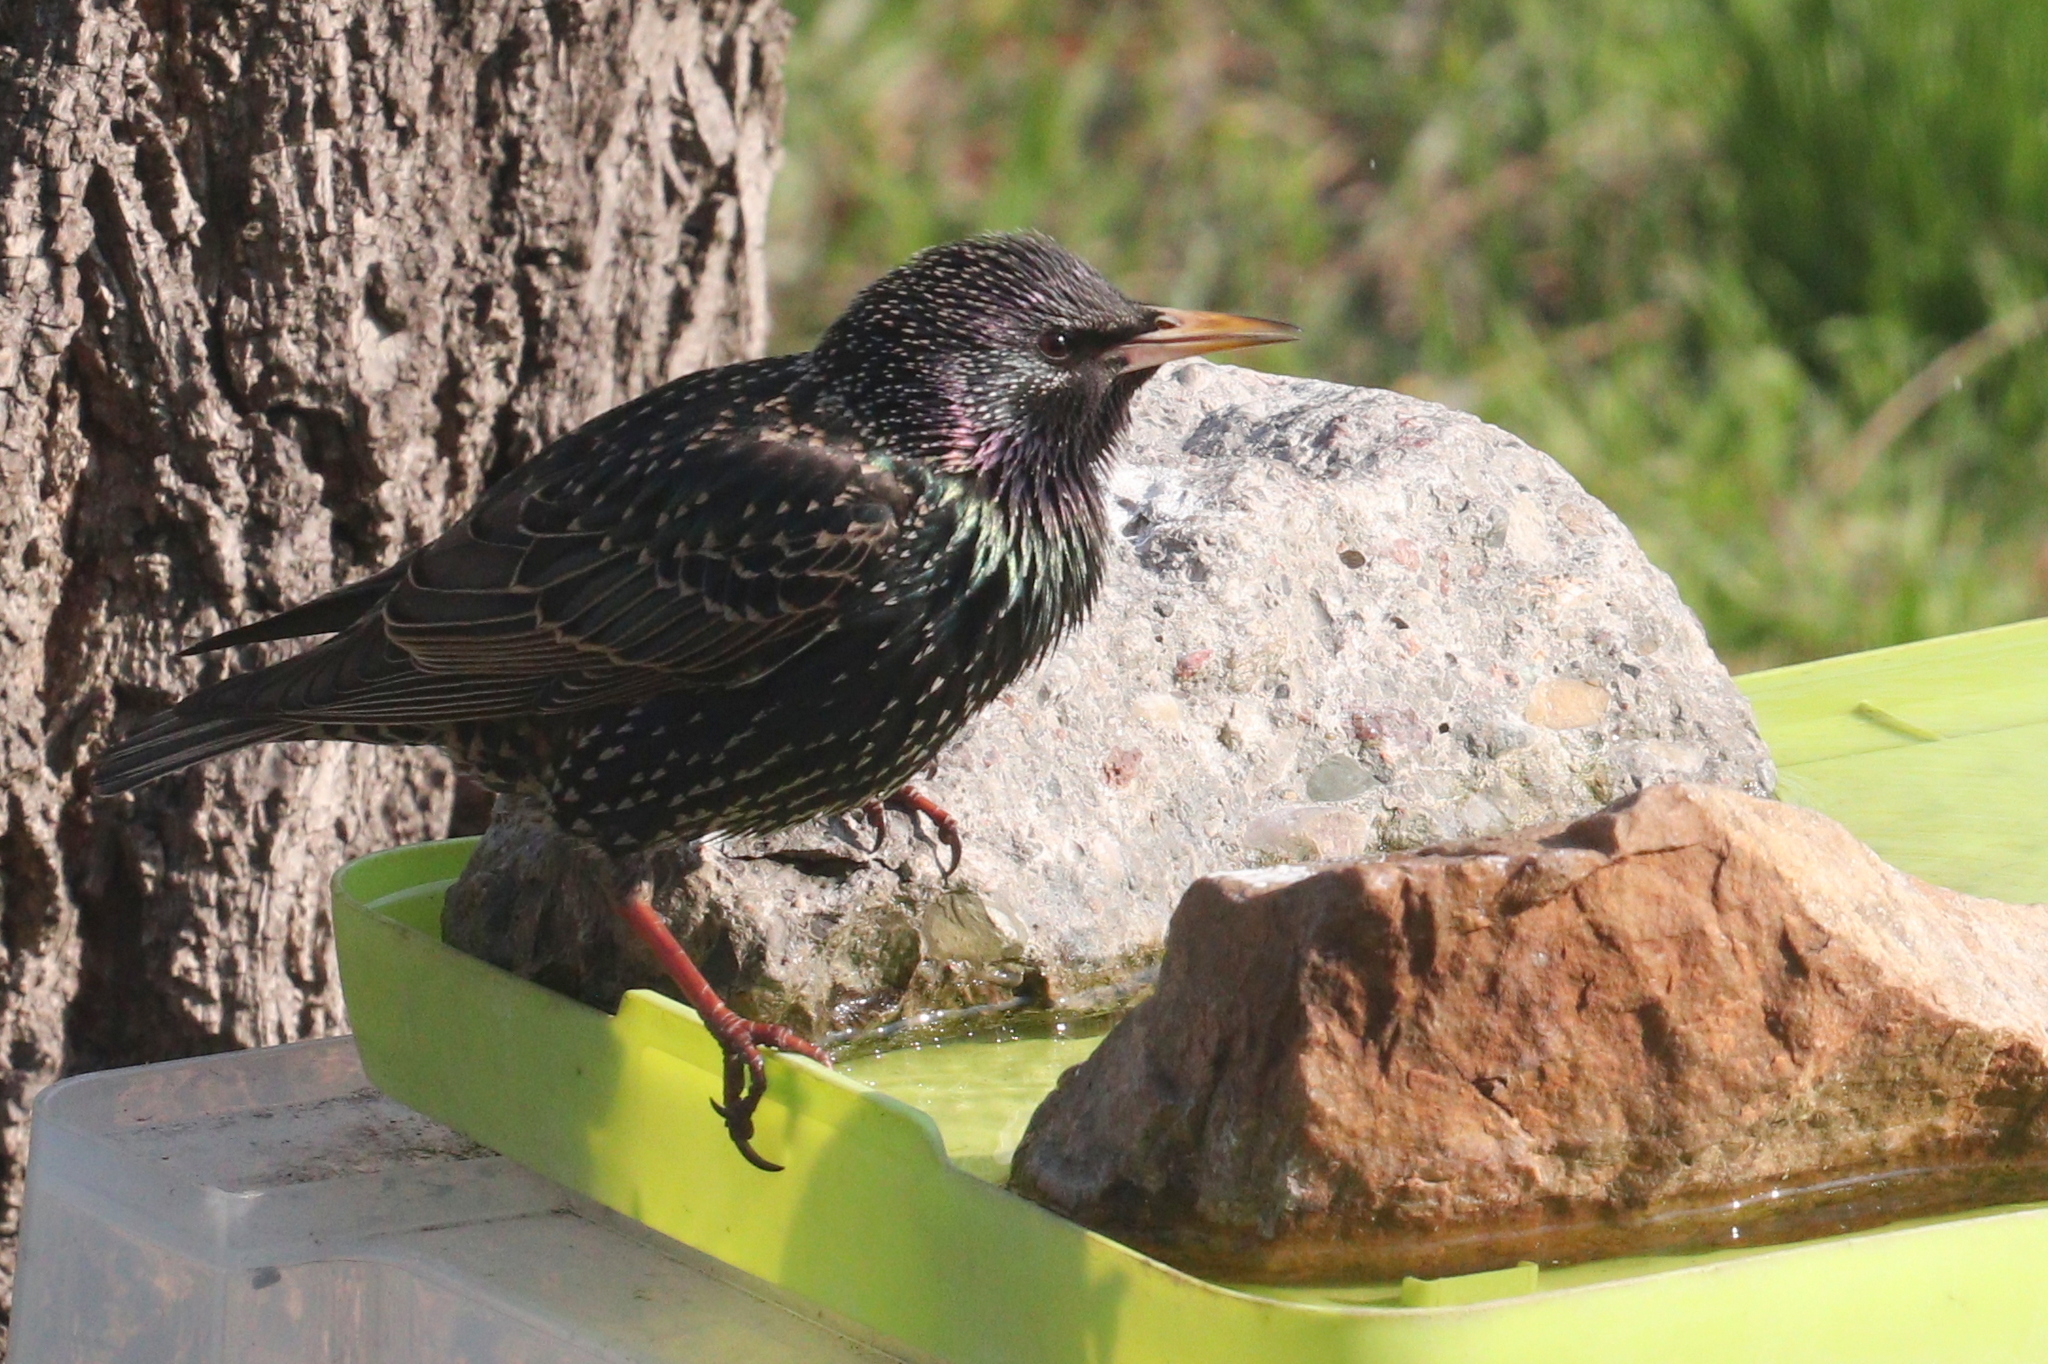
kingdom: Animalia
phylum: Chordata
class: Aves
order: Passeriformes
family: Sturnidae
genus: Sturnus
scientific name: Sturnus vulgaris
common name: Common starling
